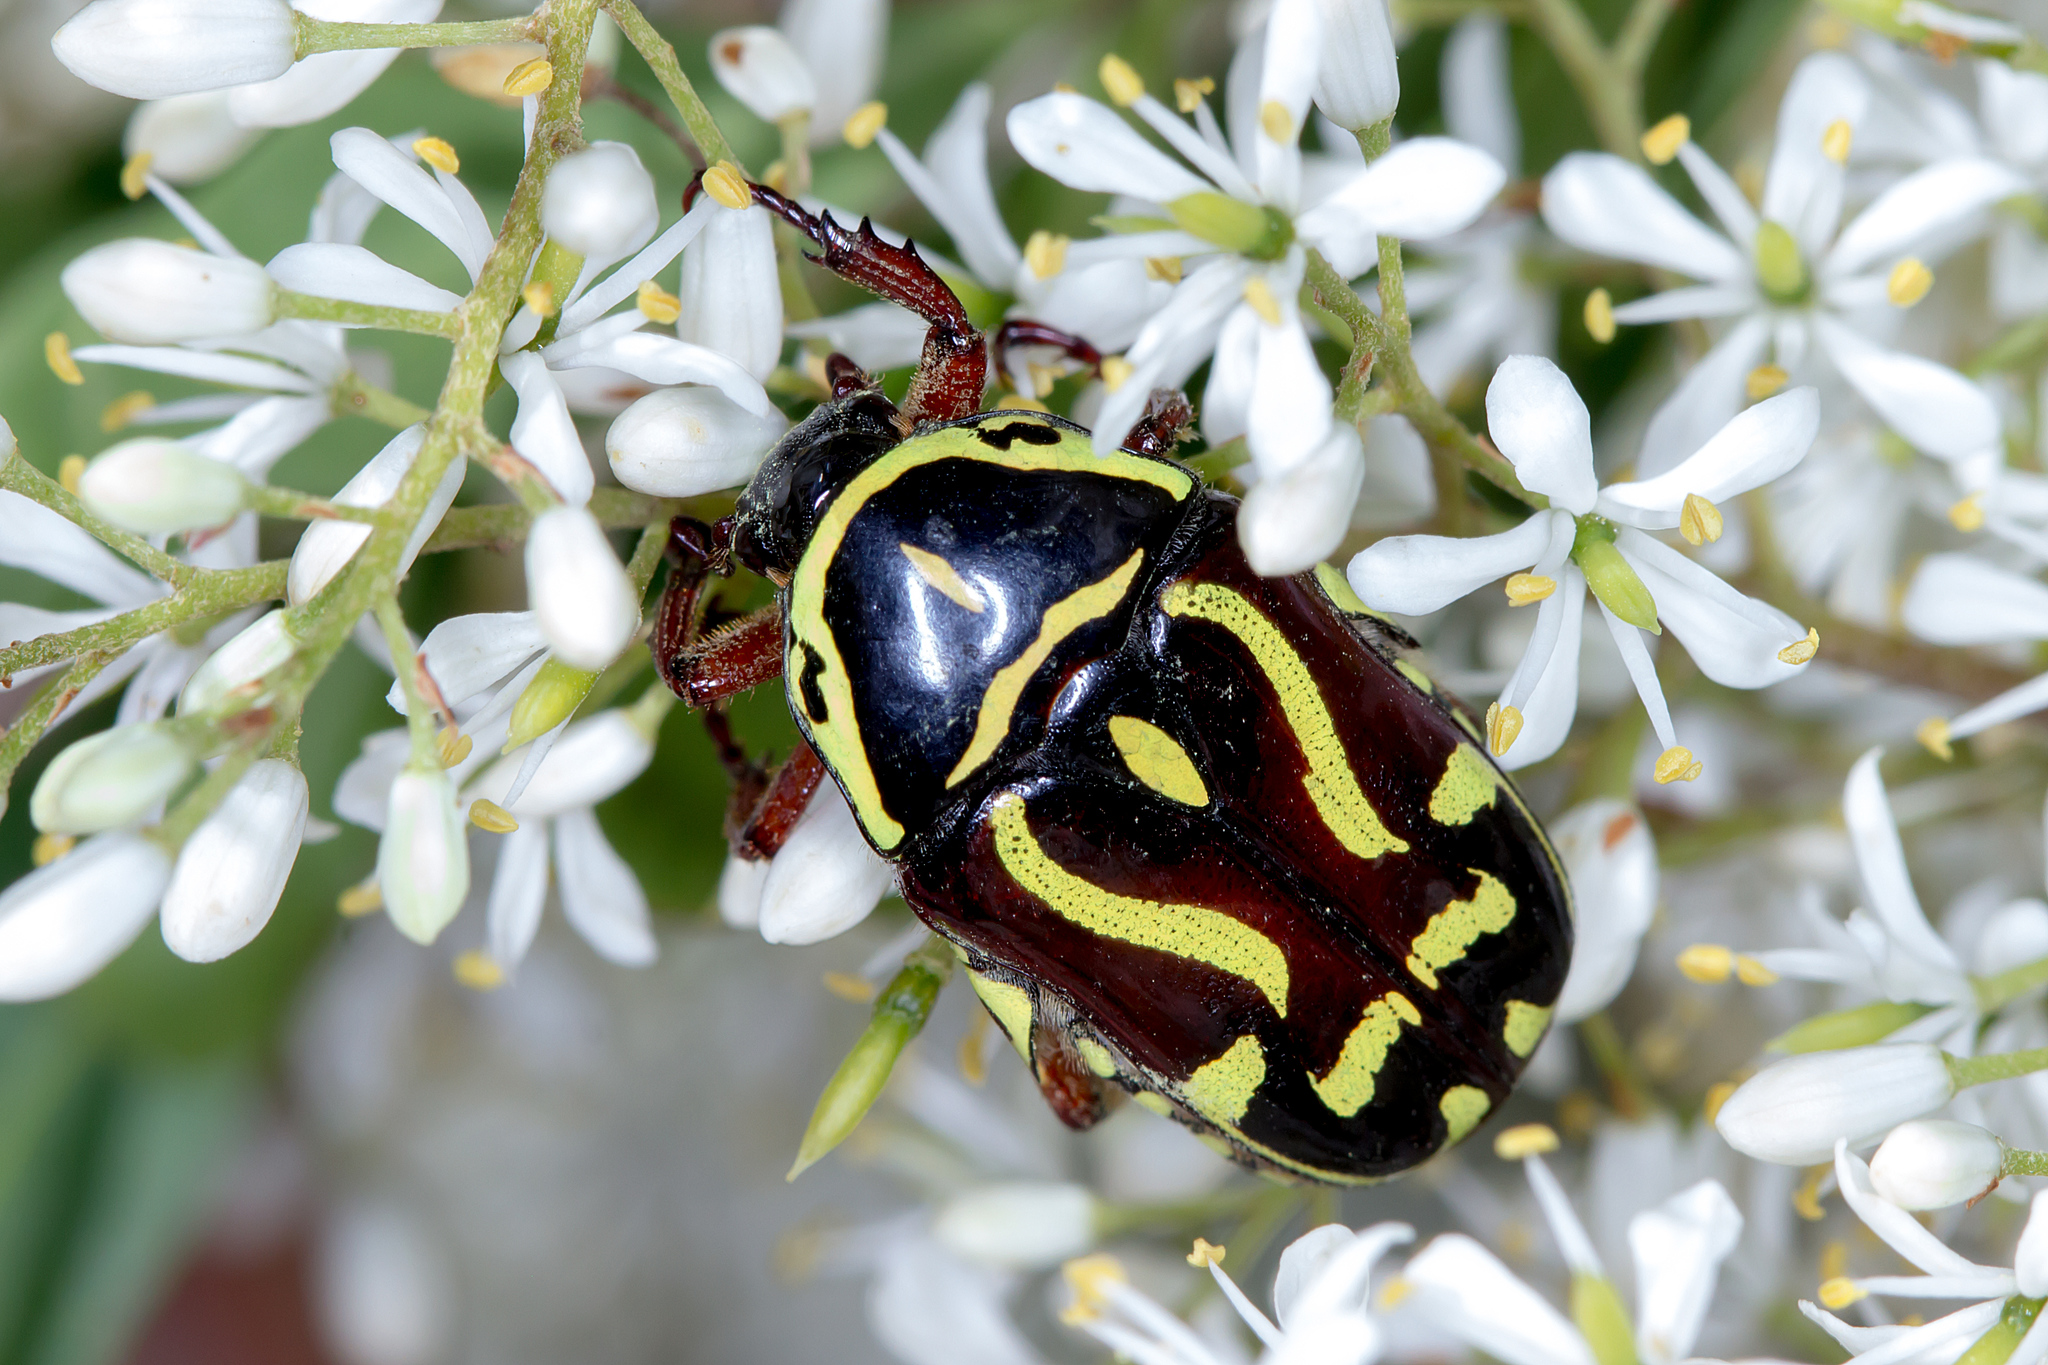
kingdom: Animalia
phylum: Arthropoda
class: Insecta
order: Coleoptera
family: Scarabaeidae
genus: Eupoecila
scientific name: Eupoecila australasiae
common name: Fiddler beetle
